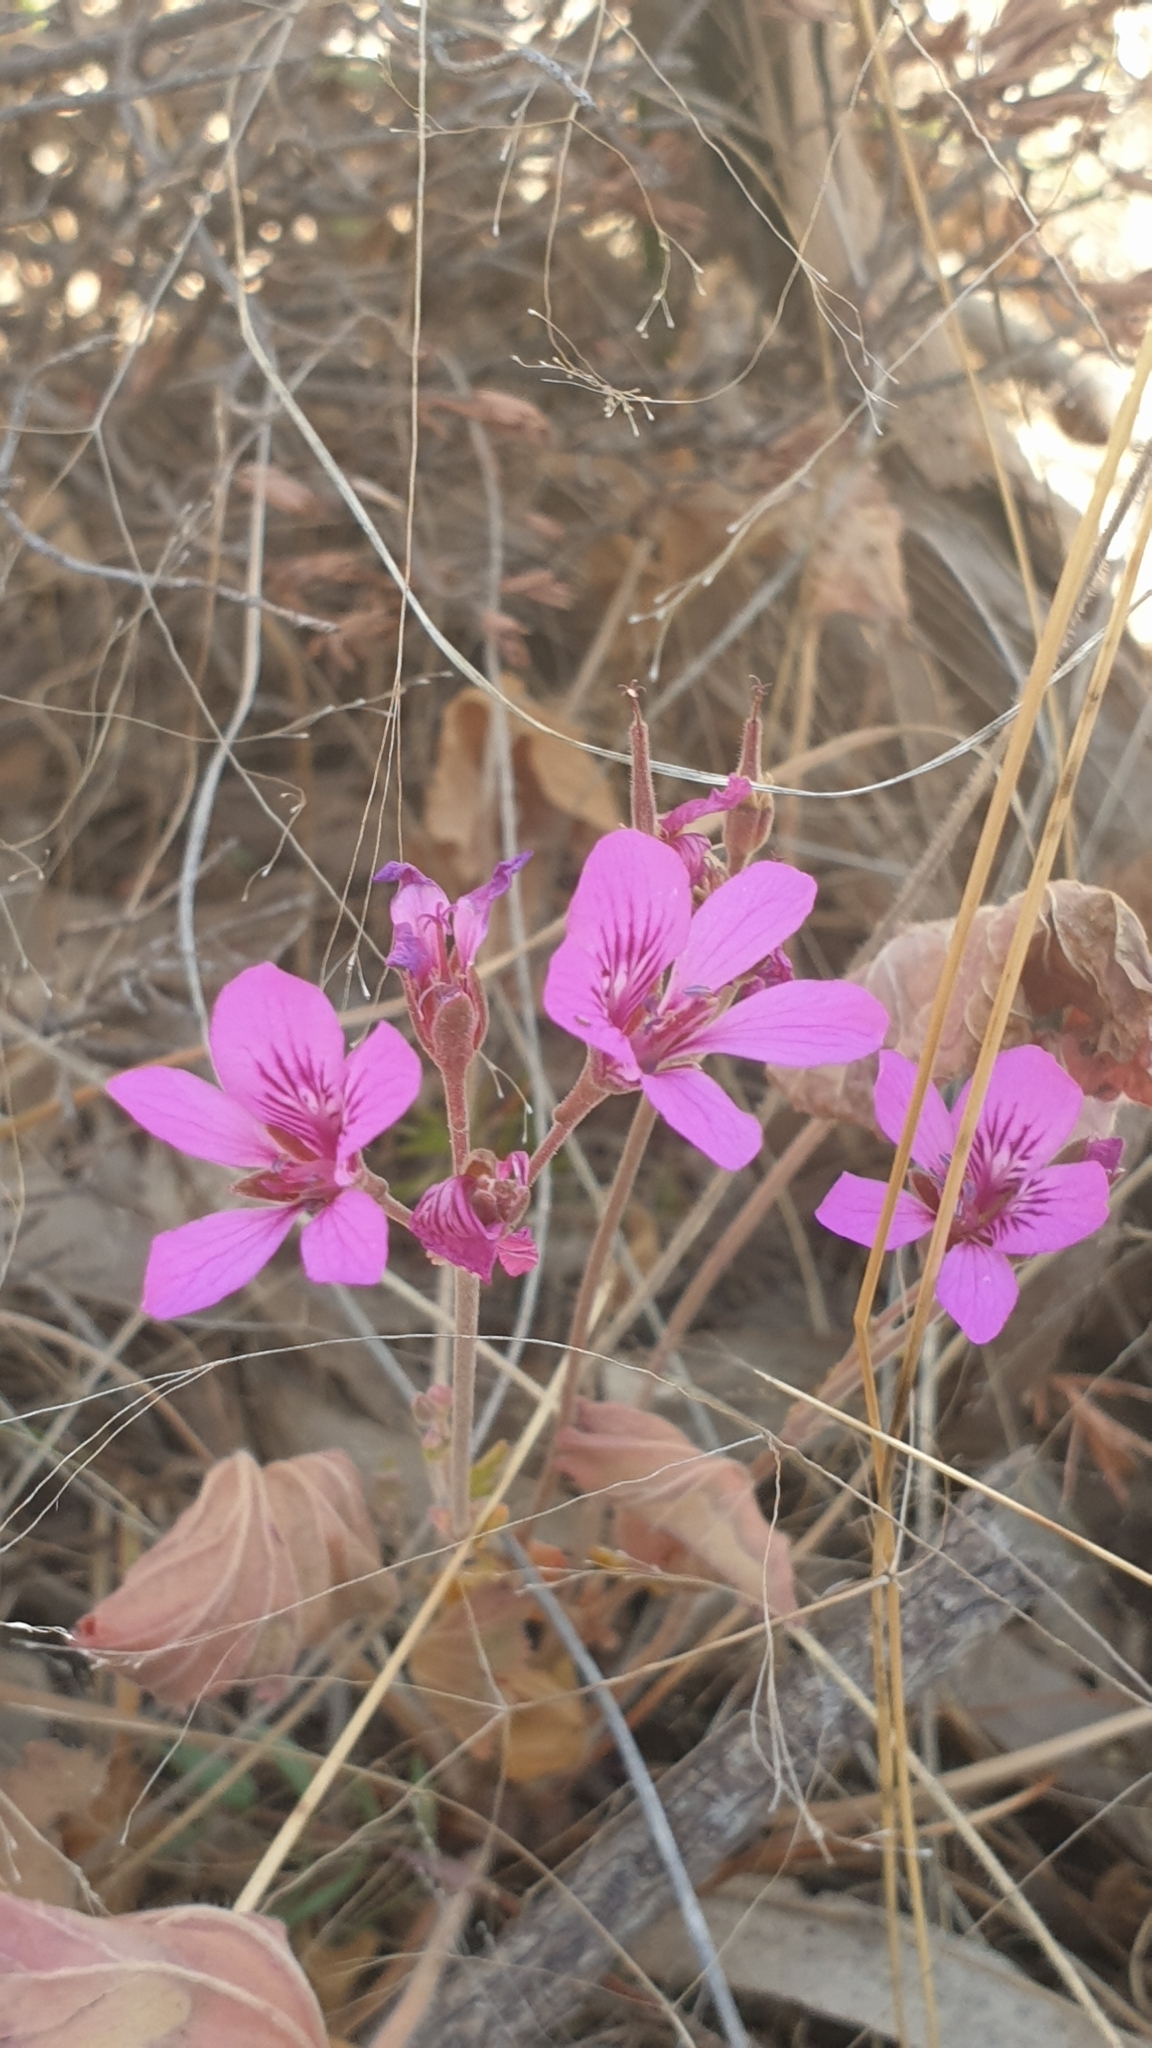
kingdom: Plantae
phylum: Tracheophyta
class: Magnoliopsida
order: Geraniales
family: Geraniaceae
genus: Pelargonium
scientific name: Pelargonium rodneyanum
